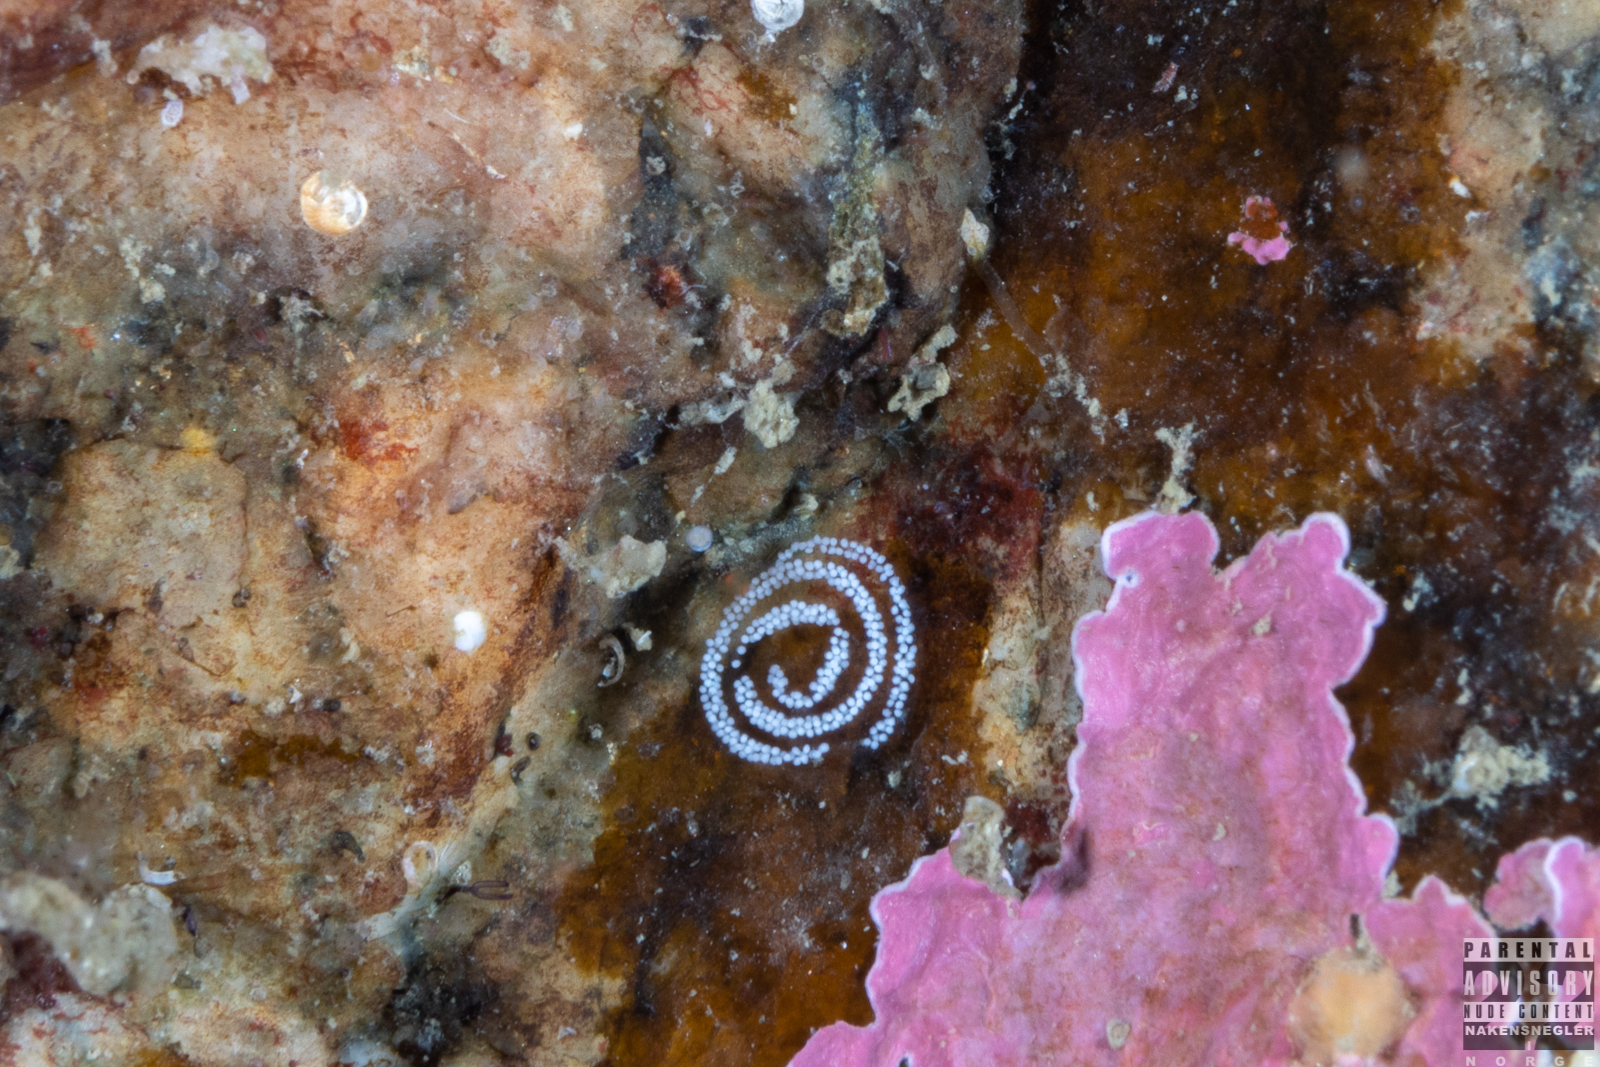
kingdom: Animalia
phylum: Mollusca
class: Gastropoda
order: Nudibranchia
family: Tritoniidae
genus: Duvaucelia
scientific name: Duvaucelia lineata
